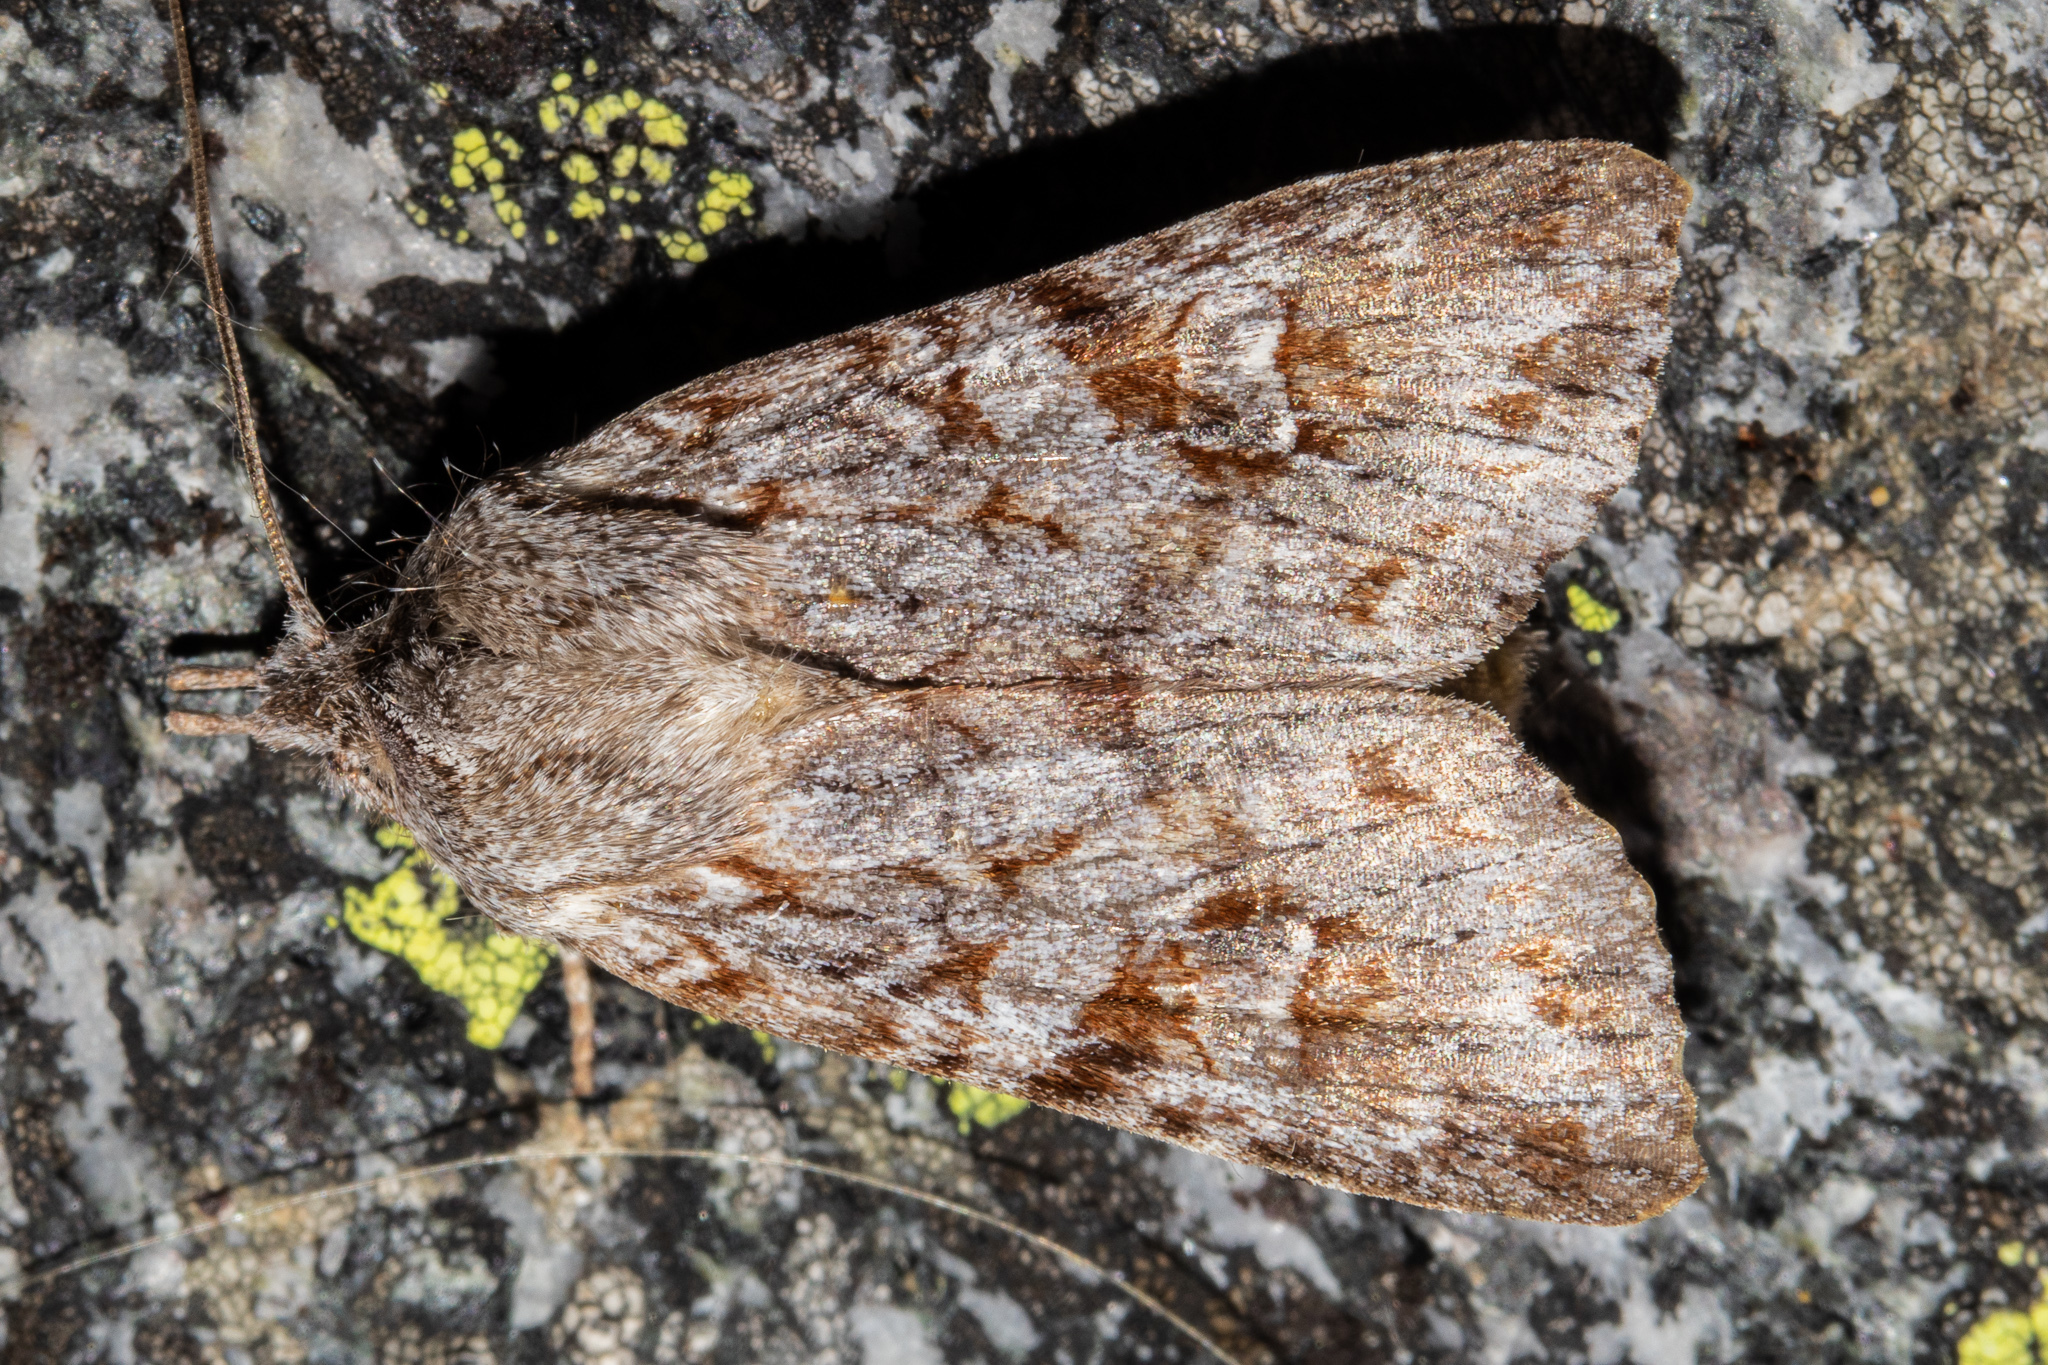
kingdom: Animalia
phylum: Arthropoda
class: Insecta
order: Lepidoptera
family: Noctuidae
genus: Physetica
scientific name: Physetica longstaffii
